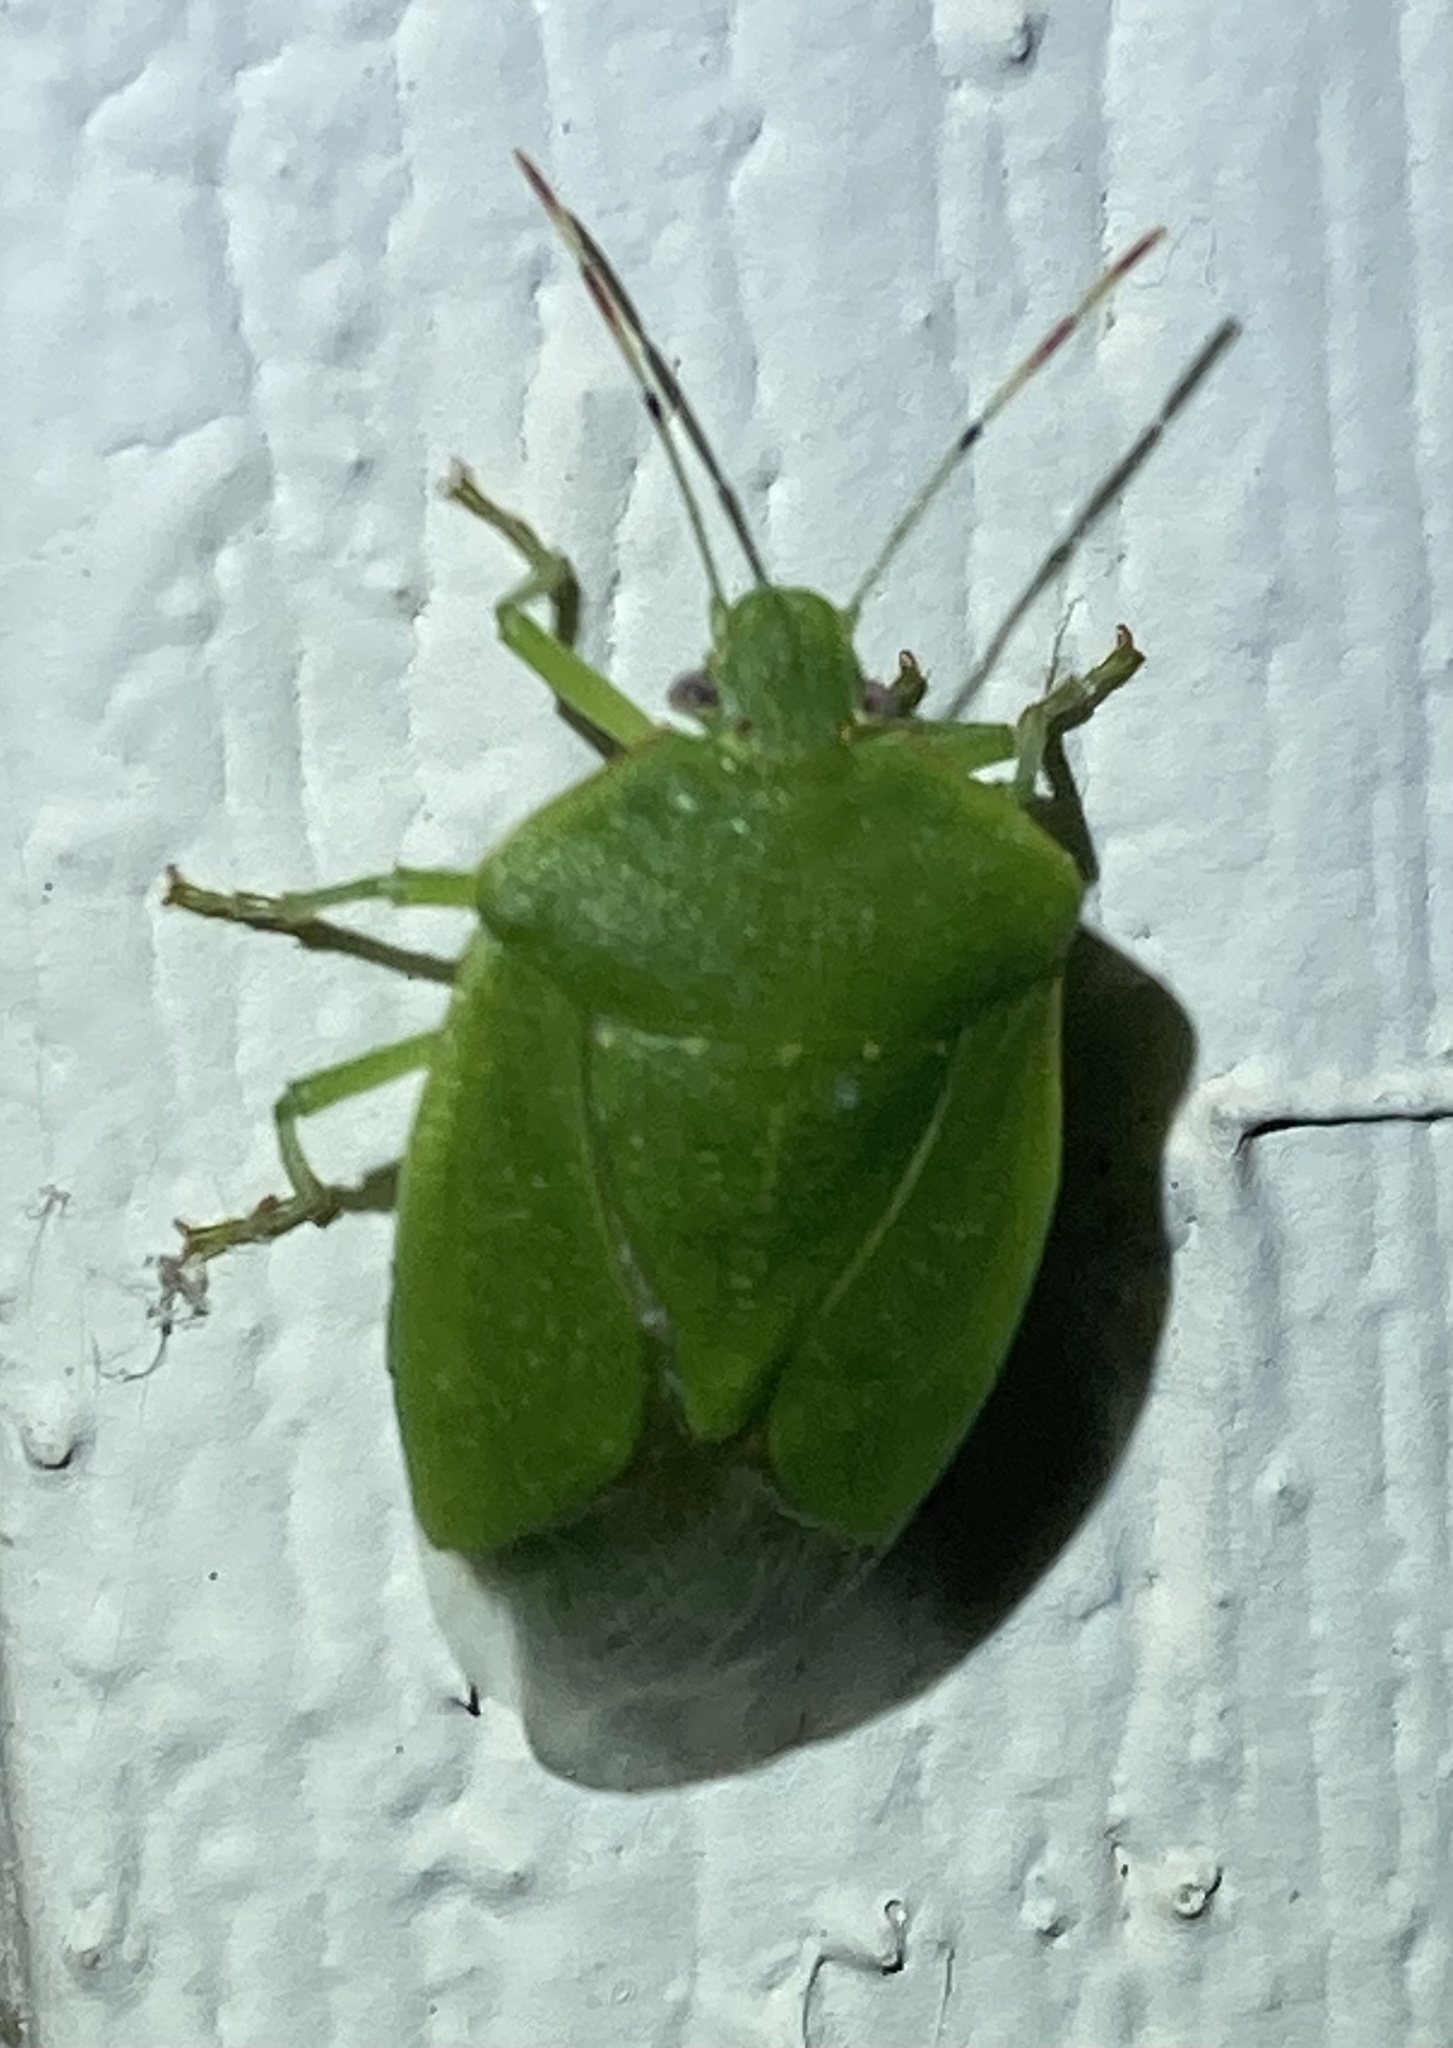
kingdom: Animalia
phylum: Arthropoda
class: Insecta
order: Hemiptera
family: Pentatomidae
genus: Chinavia
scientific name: Chinavia hilaris
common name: Green stink bug
